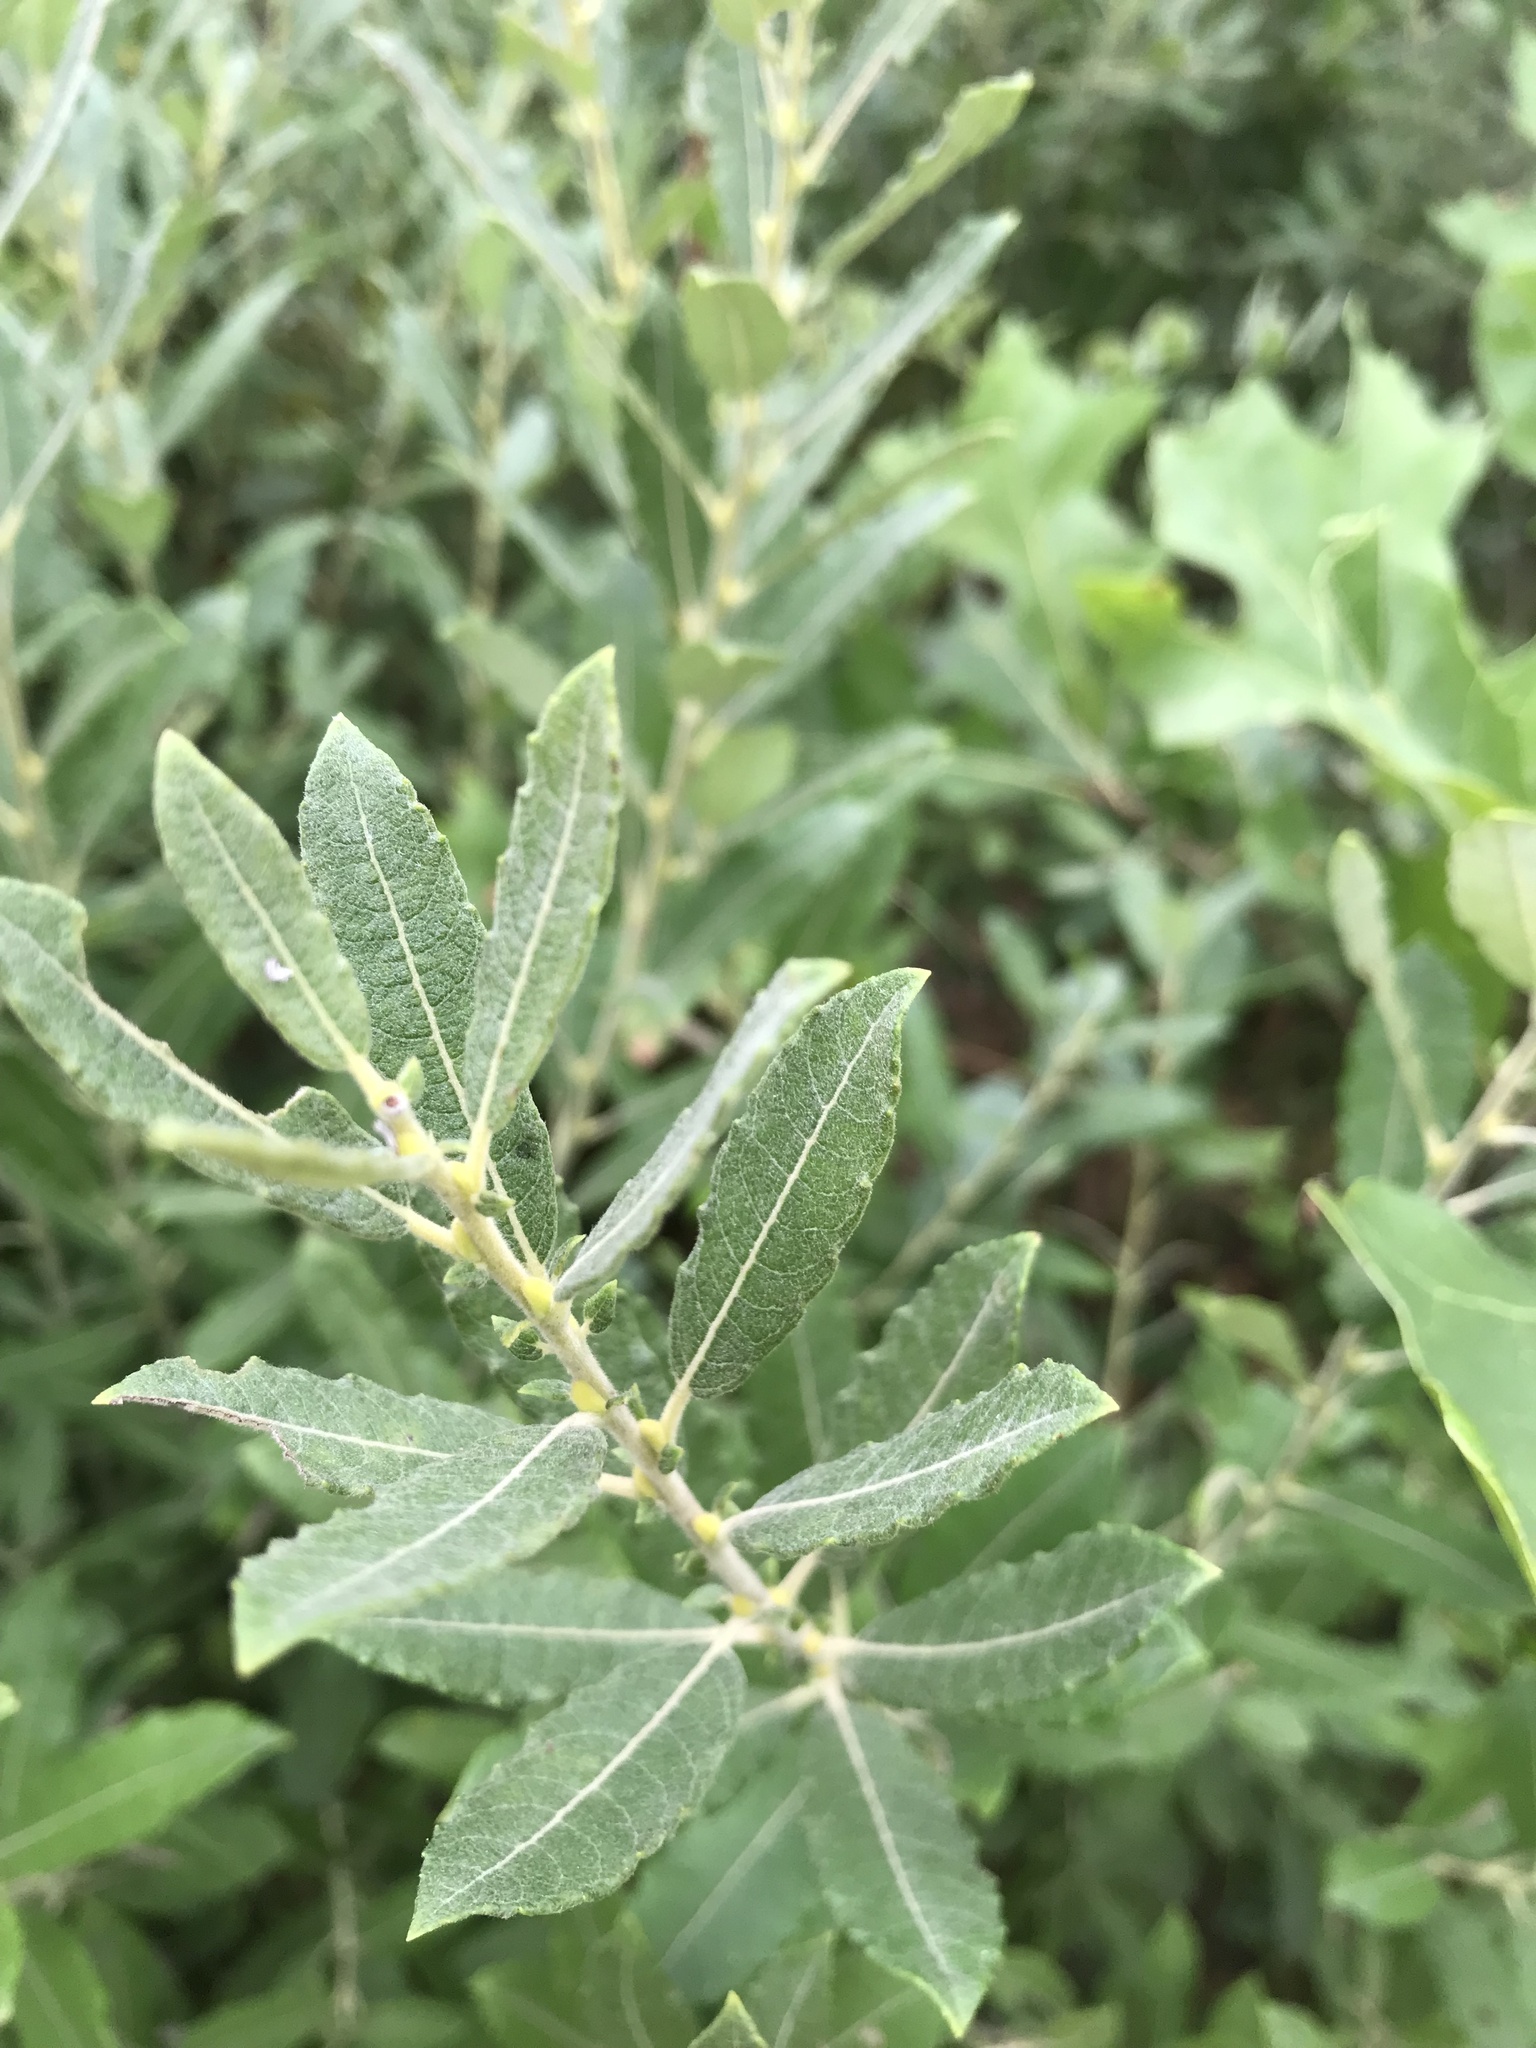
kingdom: Plantae
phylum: Tracheophyta
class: Magnoliopsida
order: Malpighiales
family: Salicaceae
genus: Salix
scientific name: Salix humilis
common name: Prairie willow
